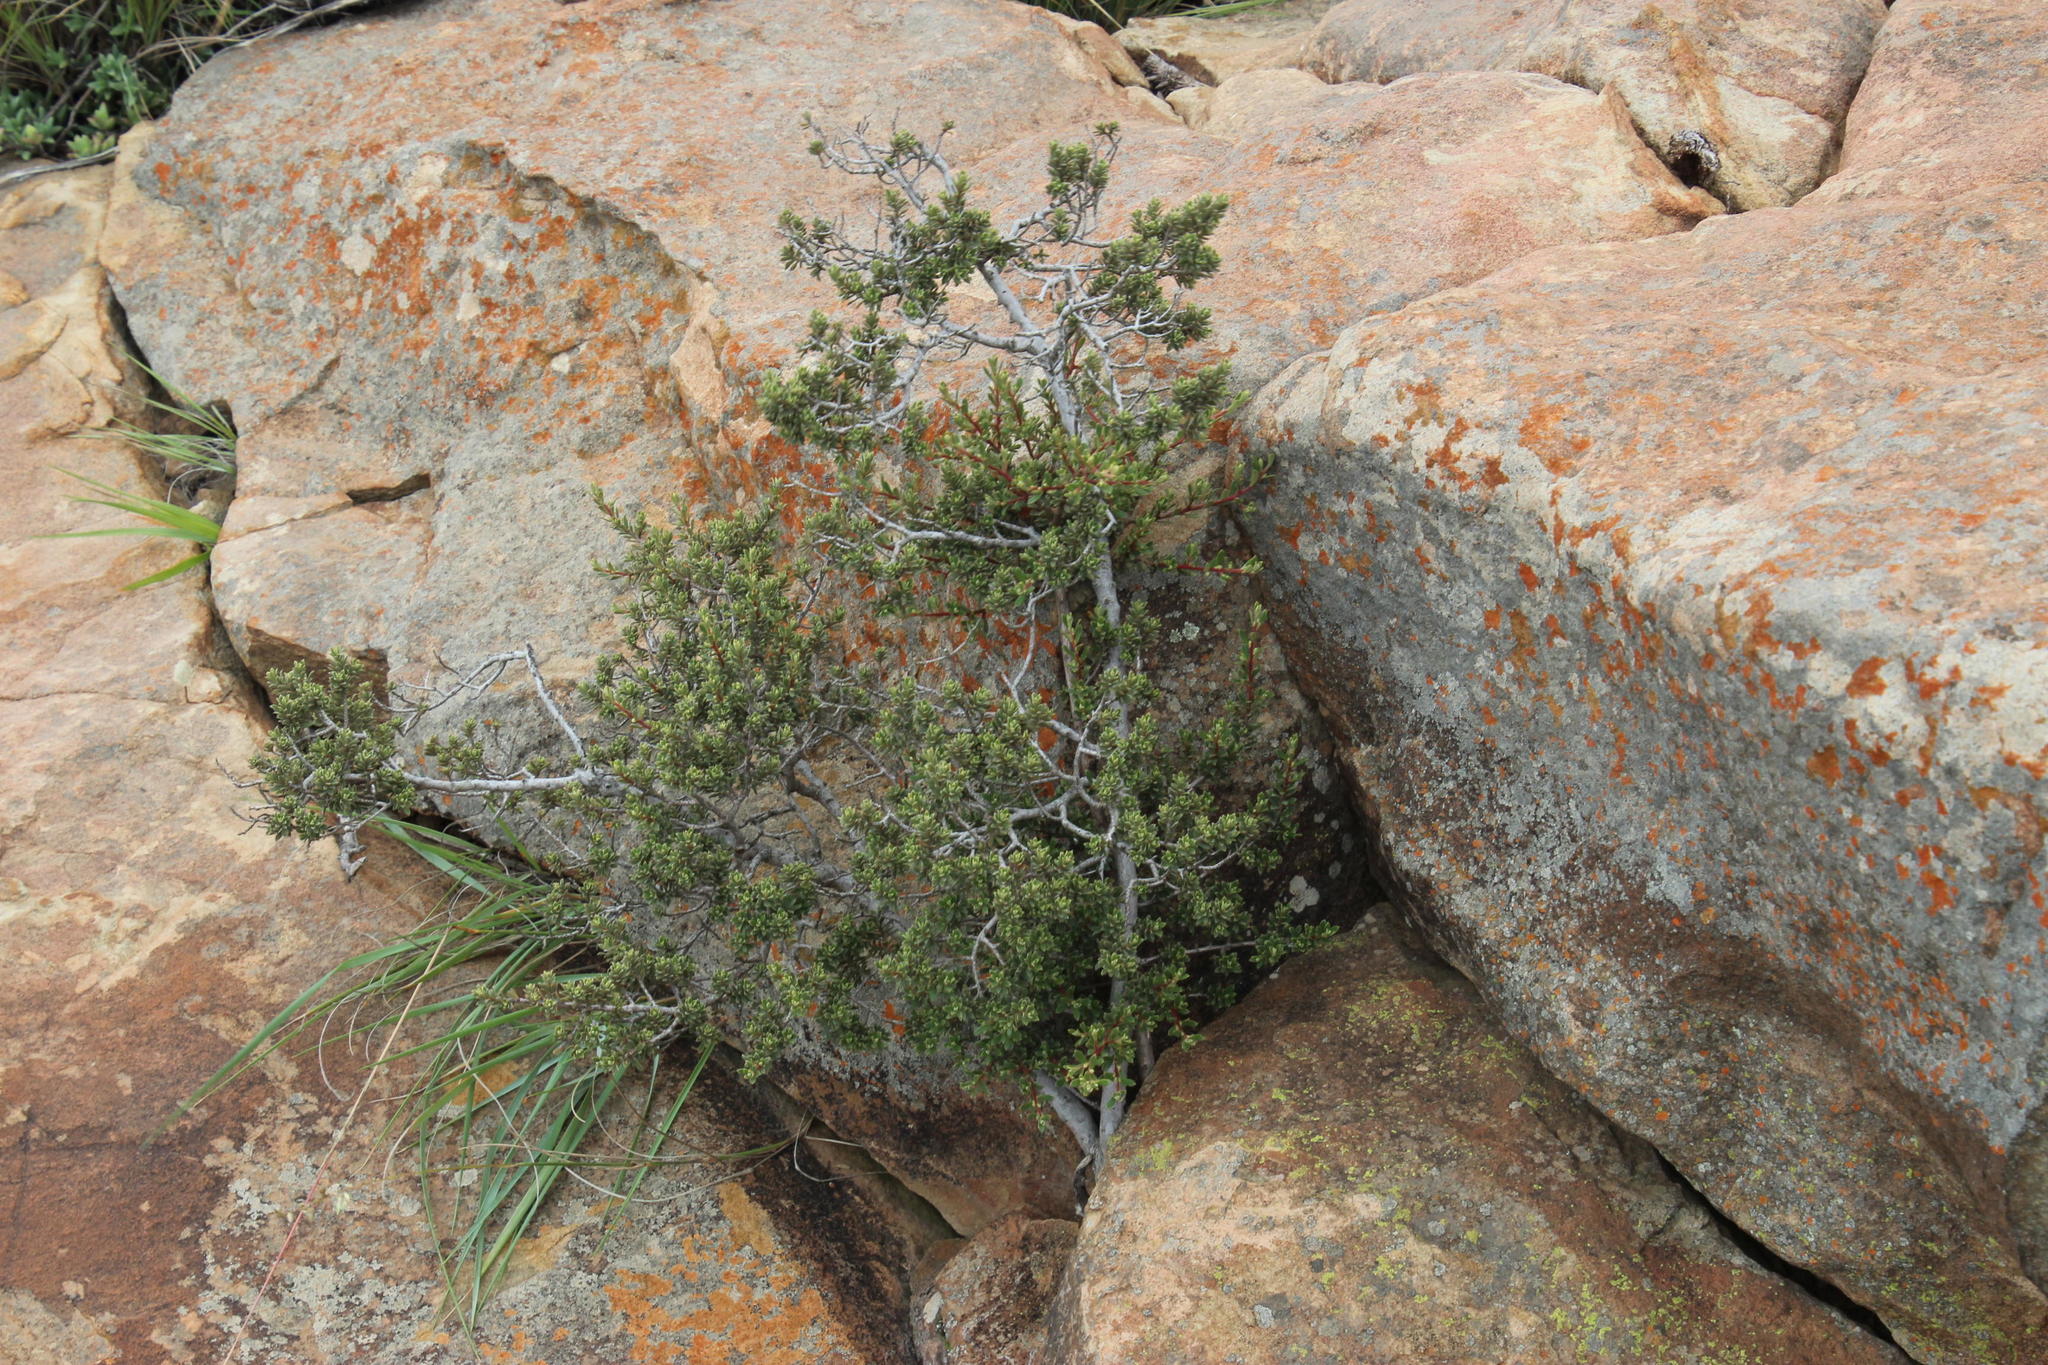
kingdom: Plantae
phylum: Tracheophyta
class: Magnoliopsida
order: Ericales
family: Ebenaceae
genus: Diospyros
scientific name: Diospyros pubescens
